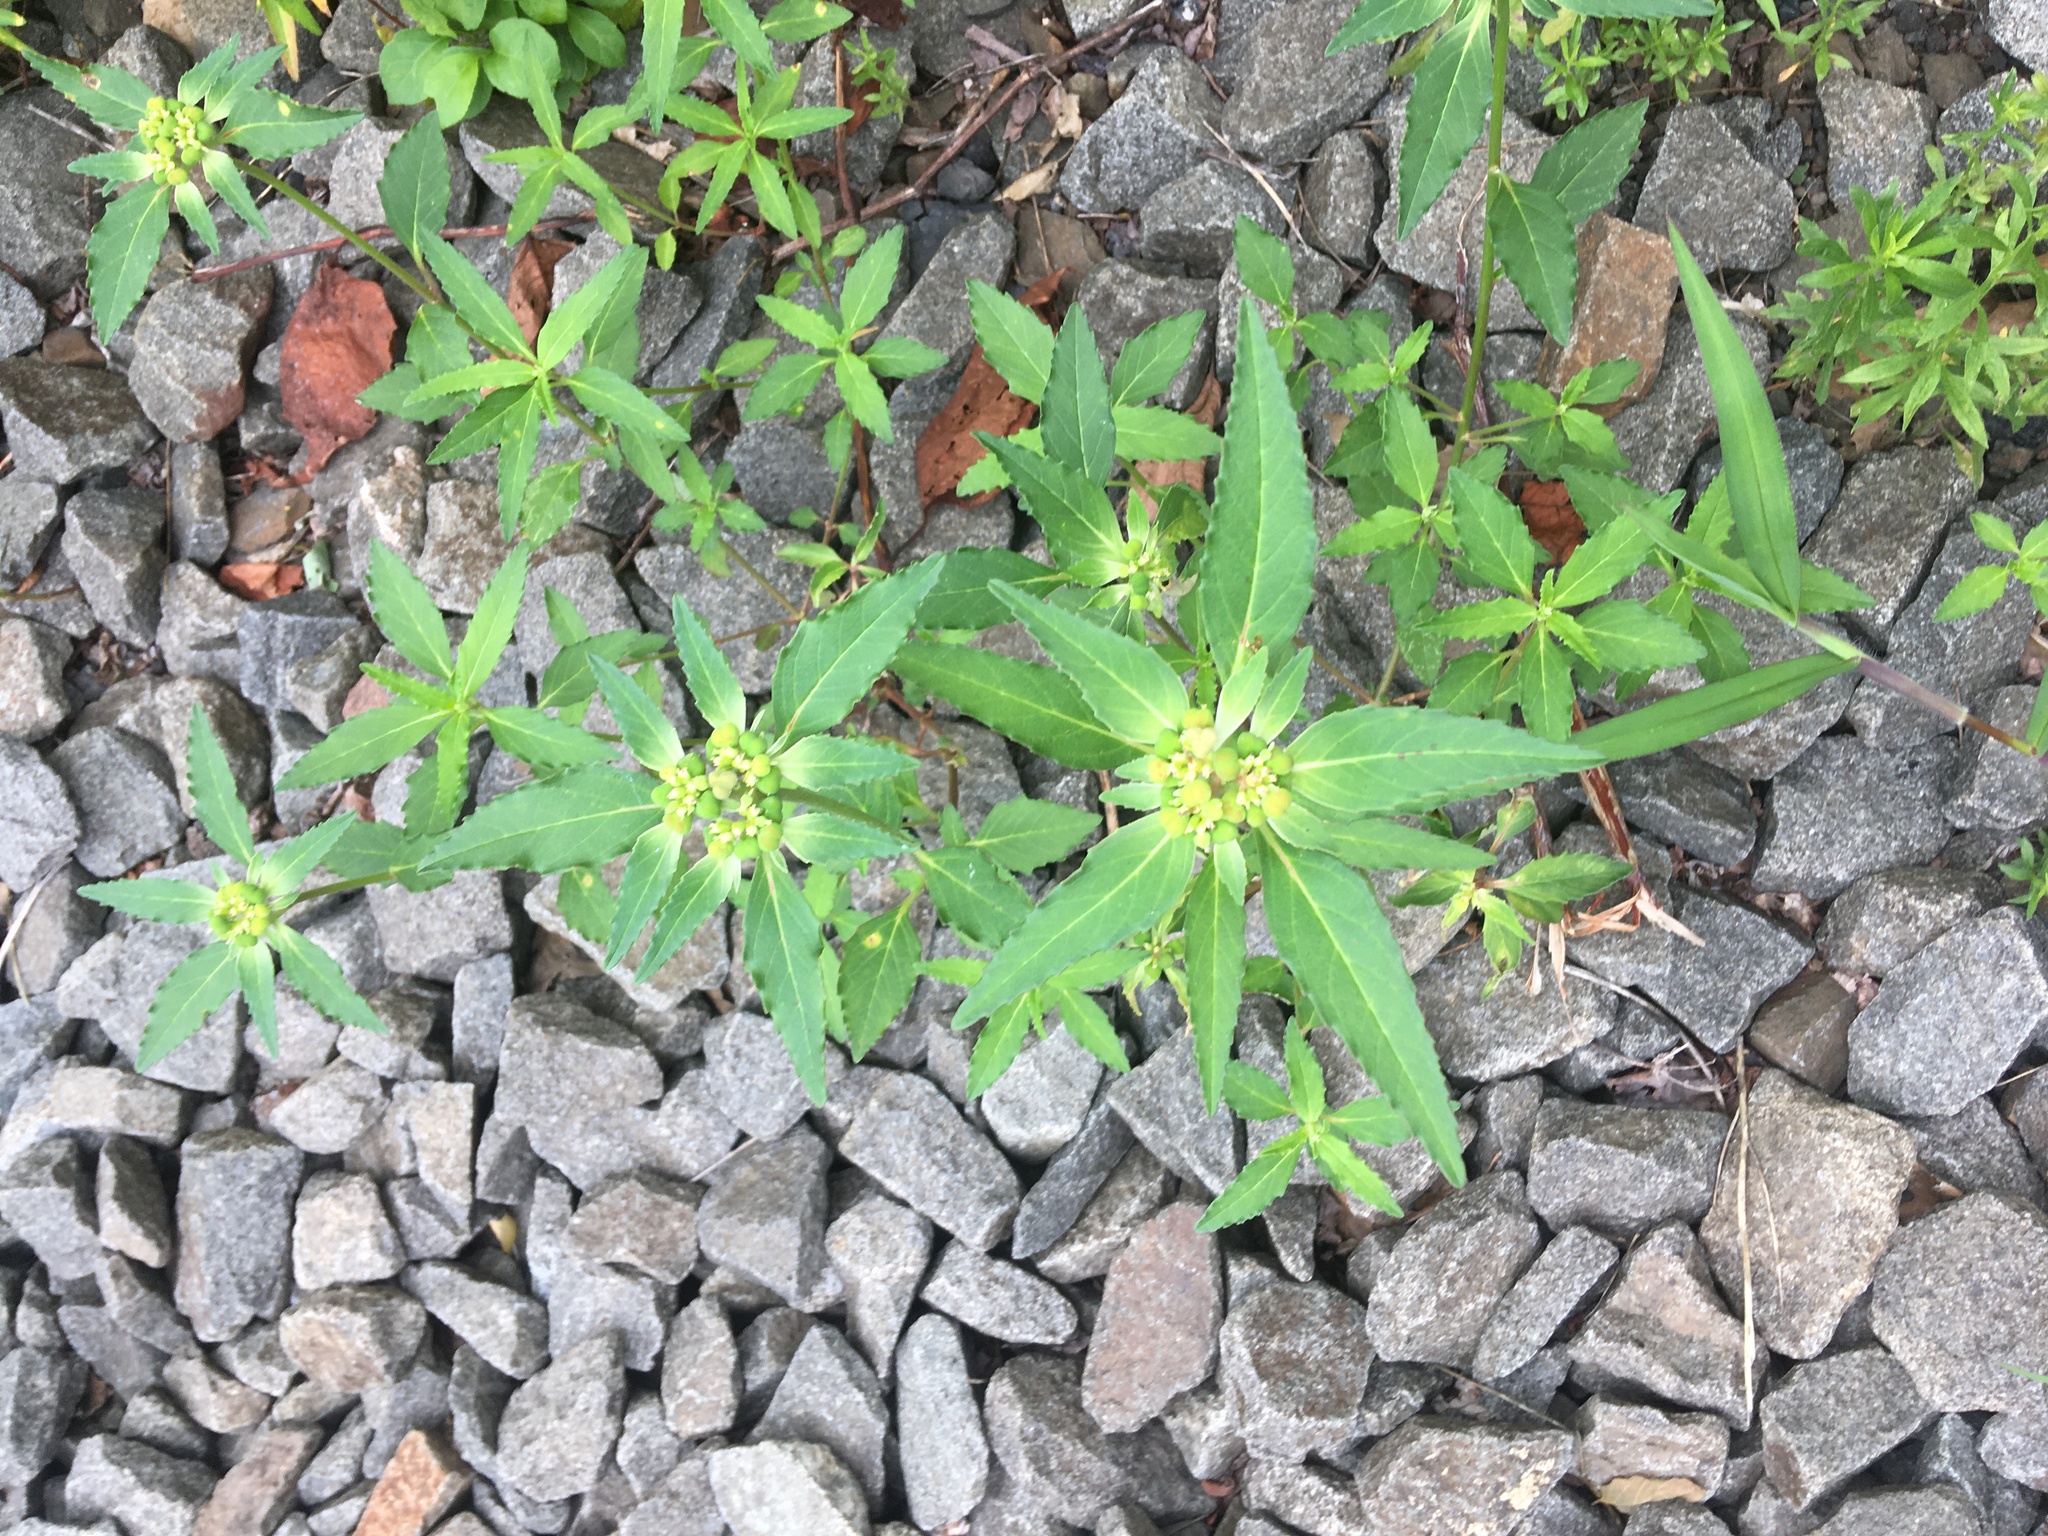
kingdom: Plantae
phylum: Tracheophyta
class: Magnoliopsida
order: Malpighiales
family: Euphorbiaceae
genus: Euphorbia
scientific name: Euphorbia dentata
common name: Dentate spurge
